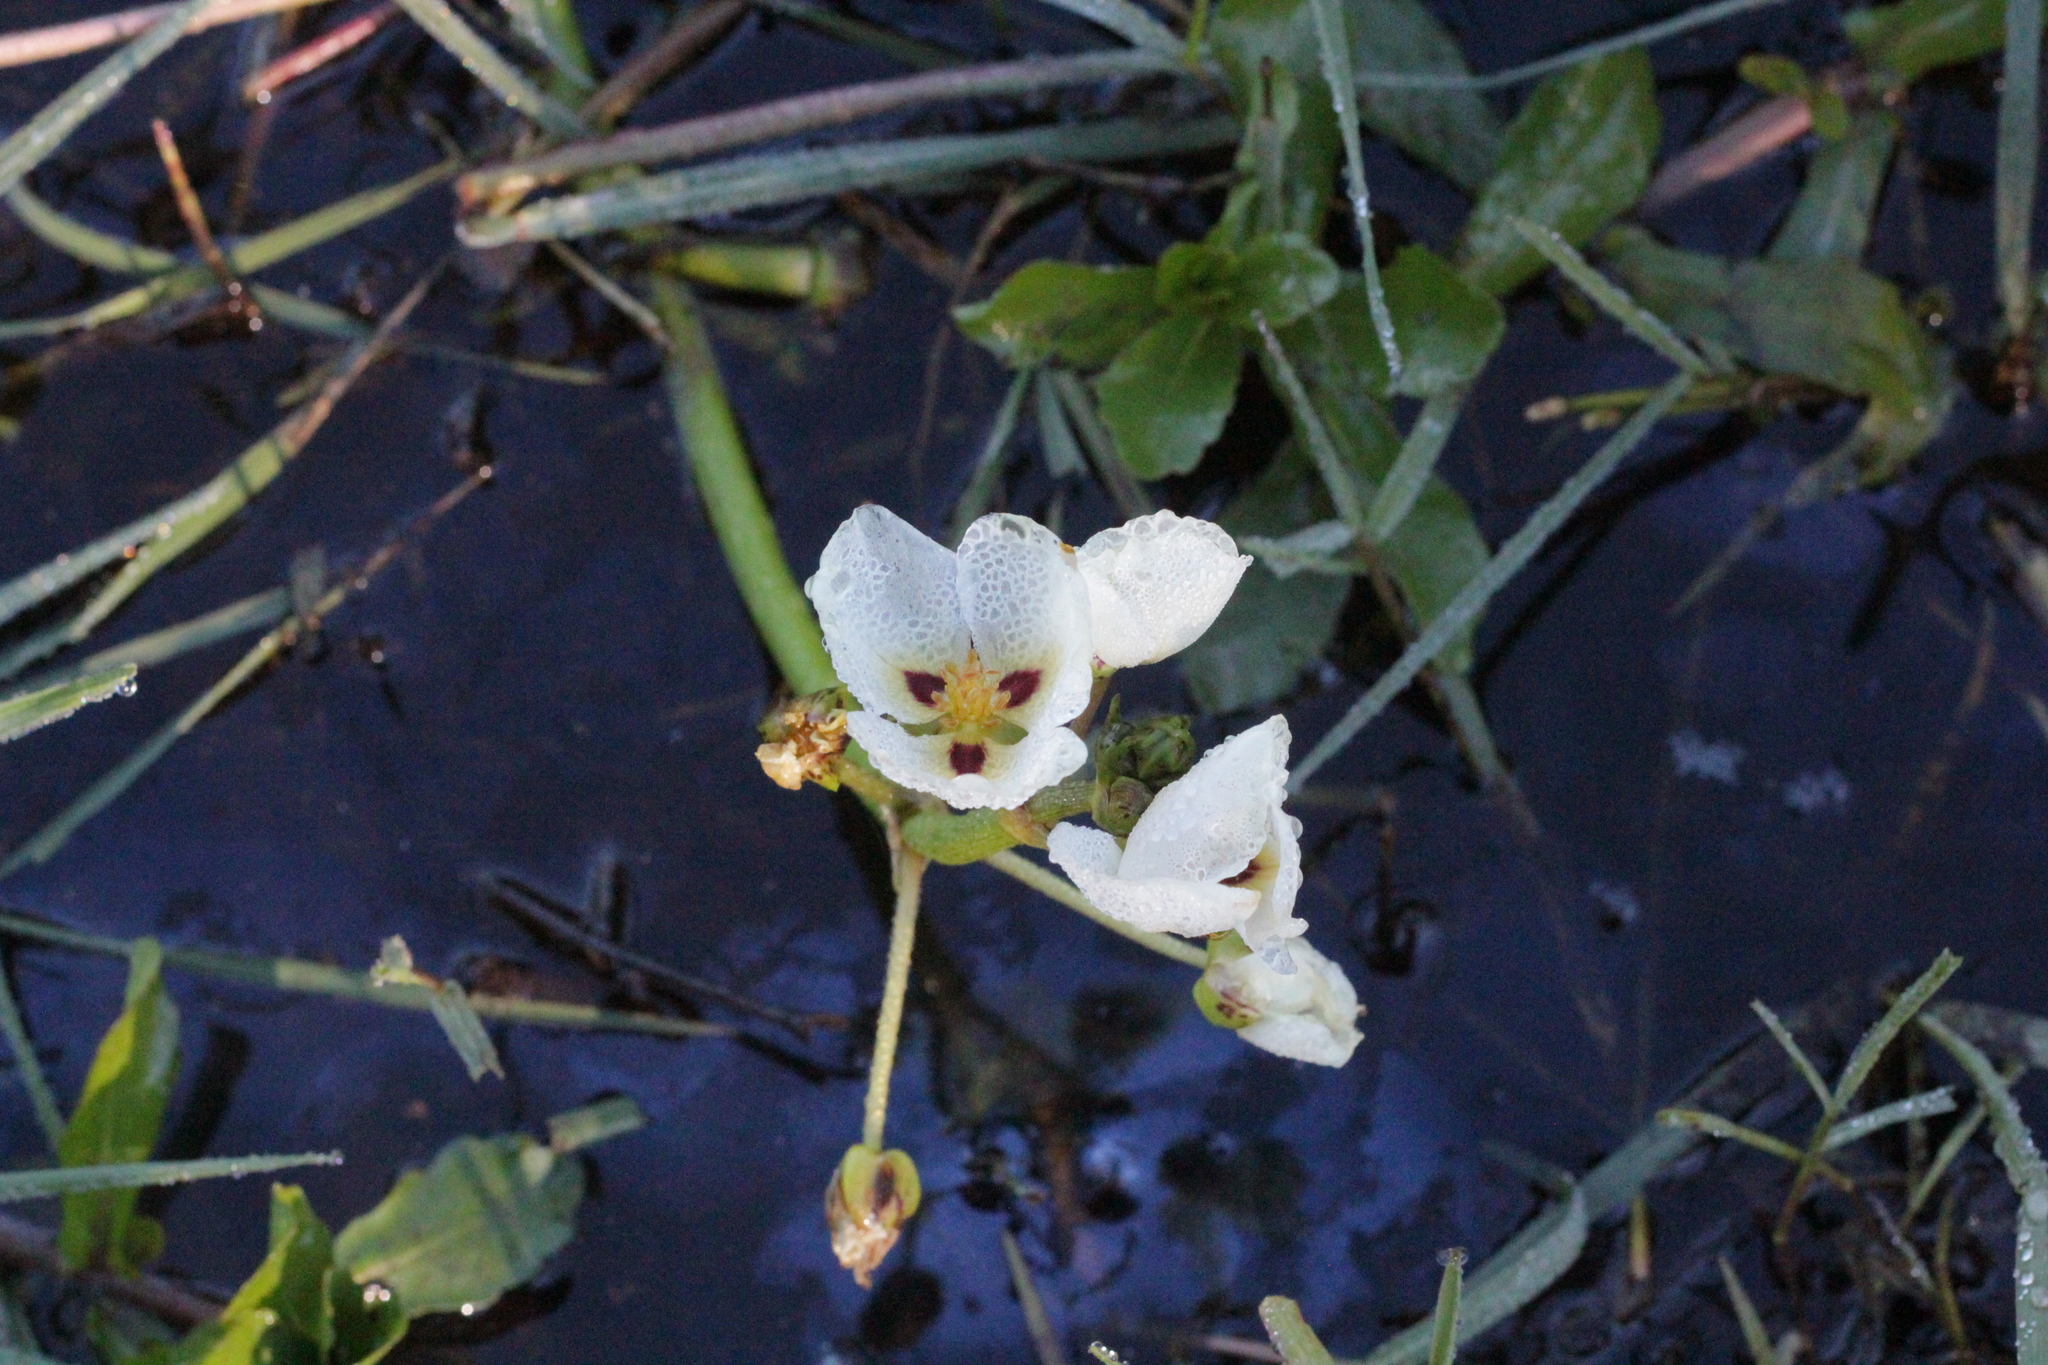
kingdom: Plantae
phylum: Tracheophyta
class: Liliopsida
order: Alismatales
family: Alismataceae
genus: Sagittaria
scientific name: Sagittaria montevidensis
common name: Giant arrowhead
